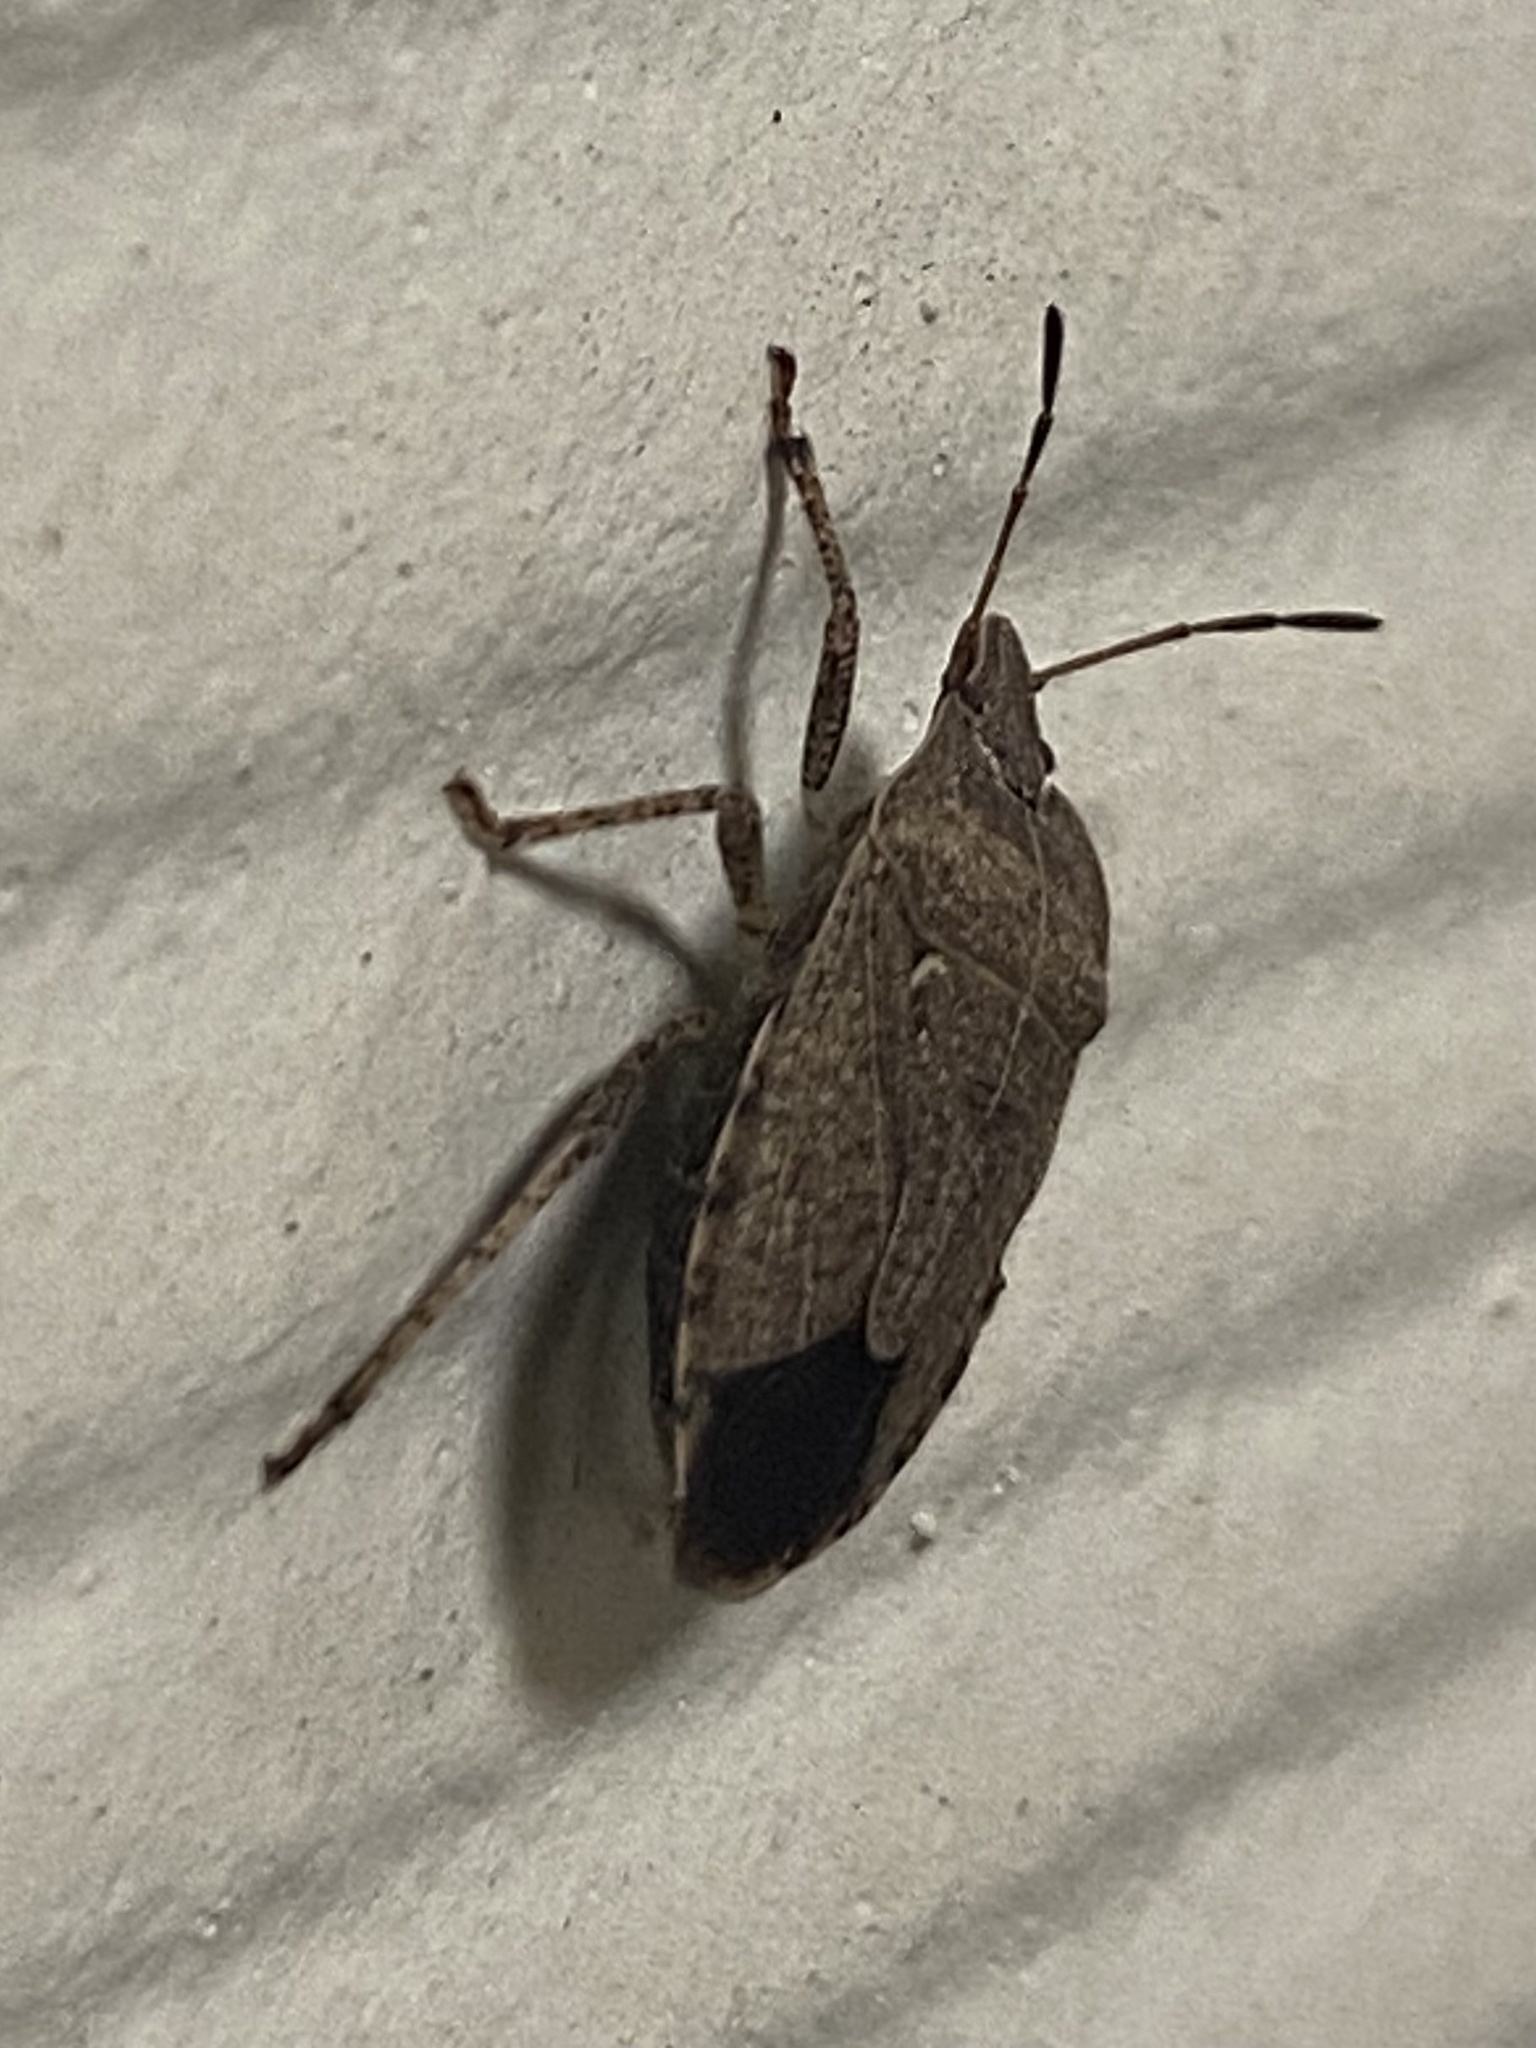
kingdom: Animalia
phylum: Arthropoda
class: Insecta
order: Hemiptera
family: Pentatomidae
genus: Menecles
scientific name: Menecles insertus
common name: Elf shoe stink bug
